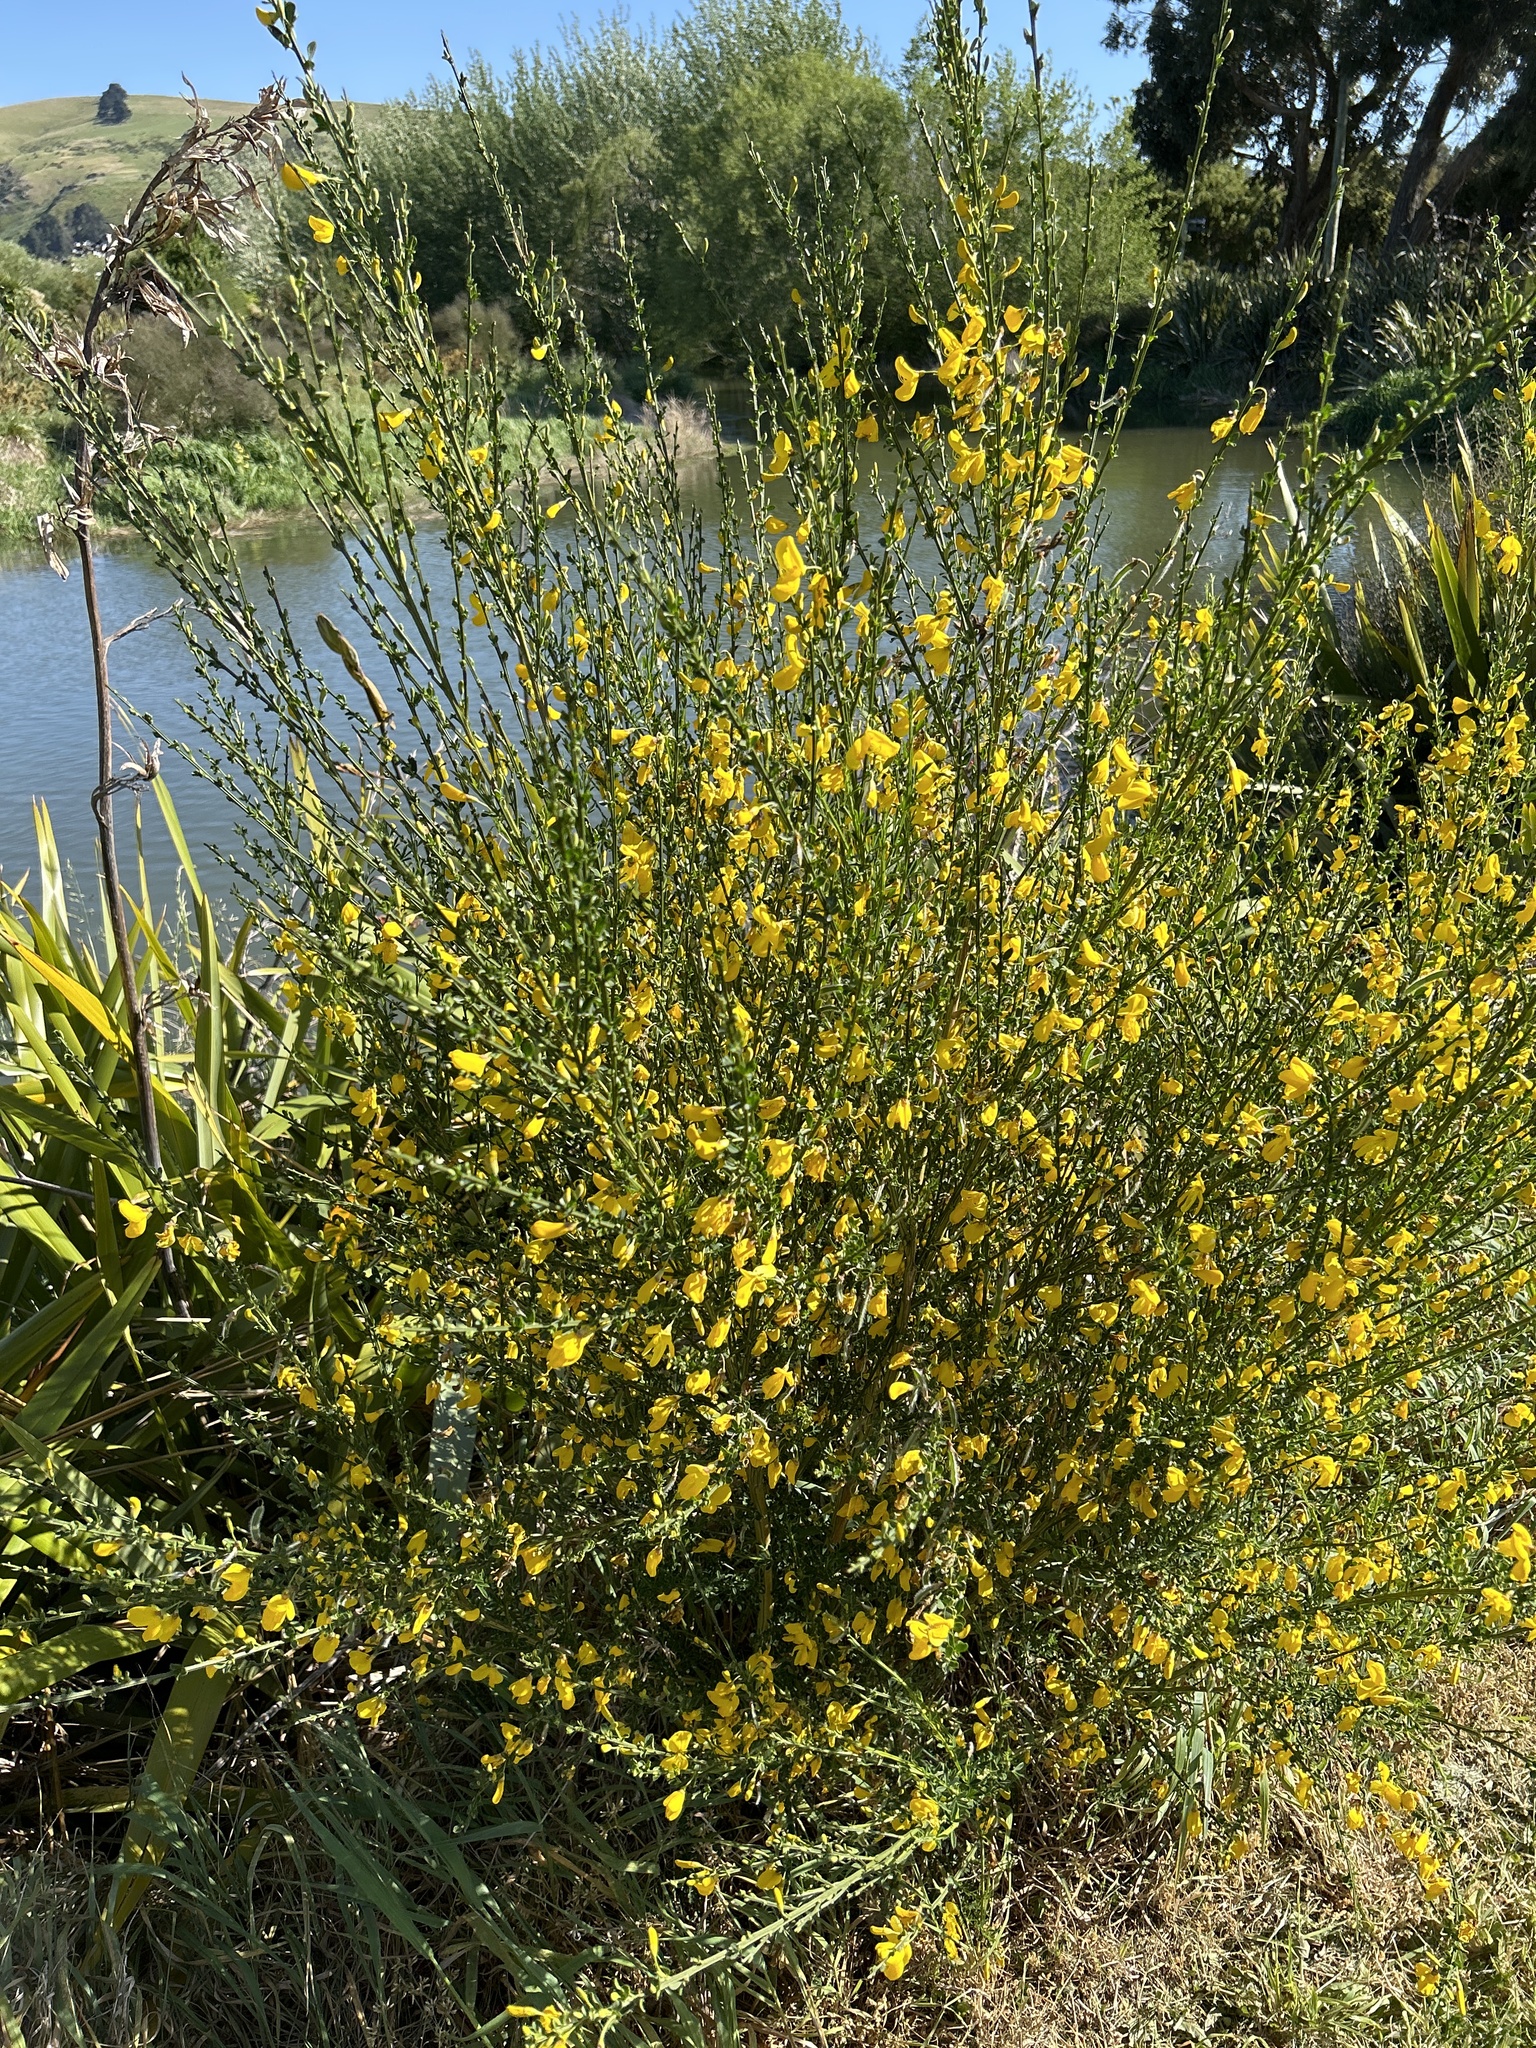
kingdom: Plantae
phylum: Tracheophyta
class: Magnoliopsida
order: Fabales
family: Fabaceae
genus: Cytisus
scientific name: Cytisus scoparius
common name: Scotch broom
